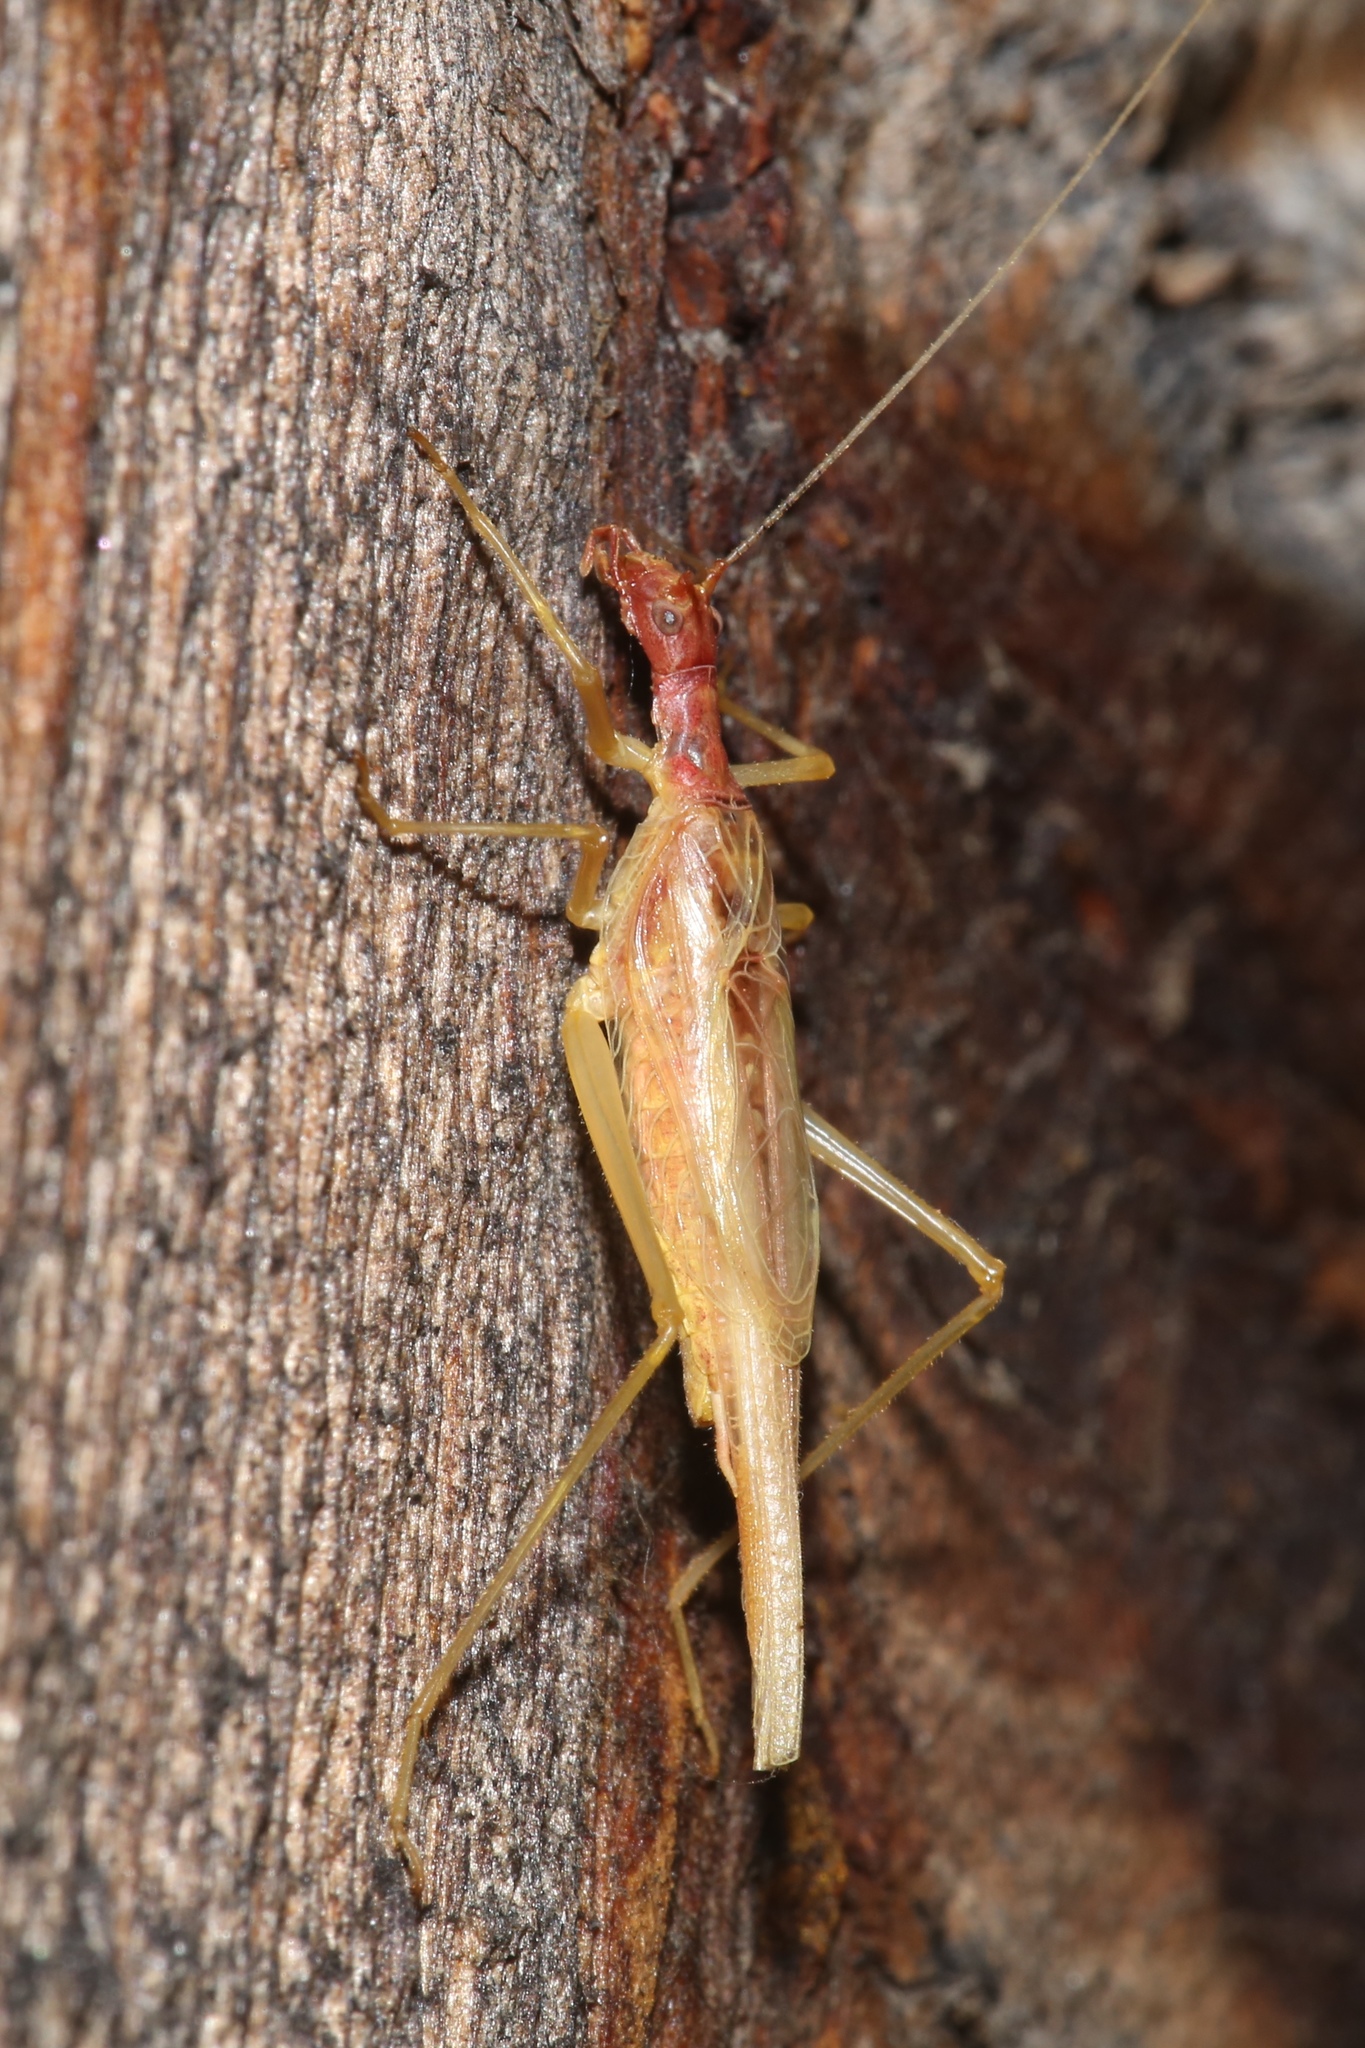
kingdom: Animalia
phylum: Arthropoda
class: Insecta
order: Orthoptera
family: Gryllidae
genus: Neoxabea
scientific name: Neoxabea bipunctata
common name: Two-spotted tree cricket
